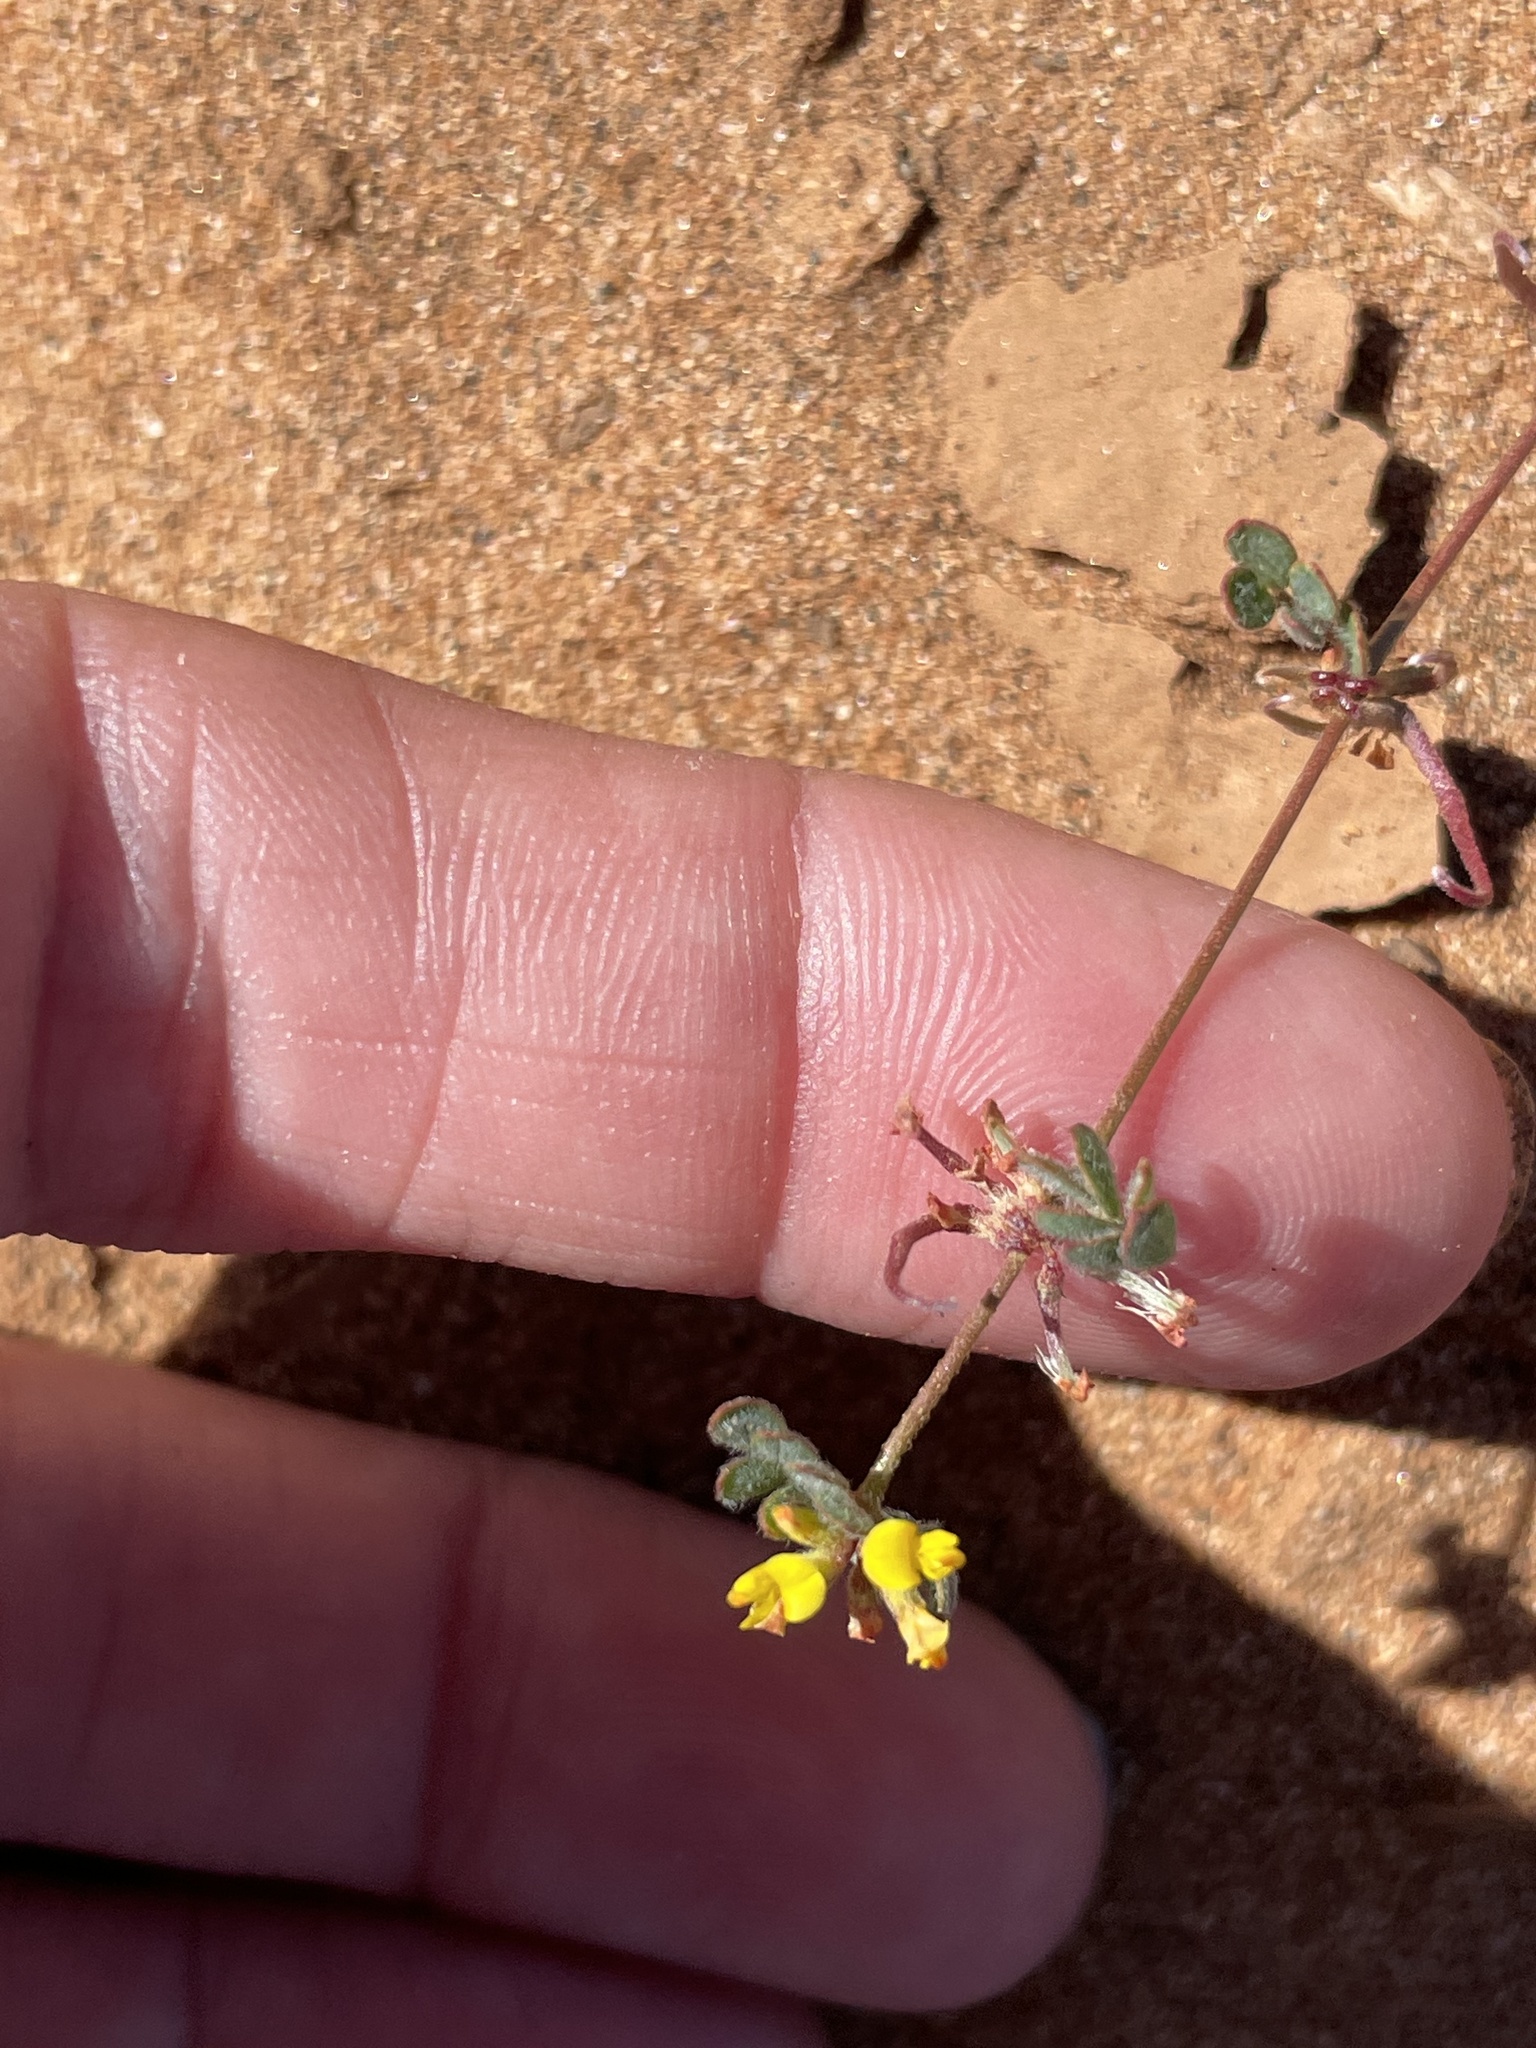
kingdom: Plantae
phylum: Tracheophyta
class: Magnoliopsida
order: Fabales
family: Fabaceae
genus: Acmispon
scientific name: Acmispon micranthus
